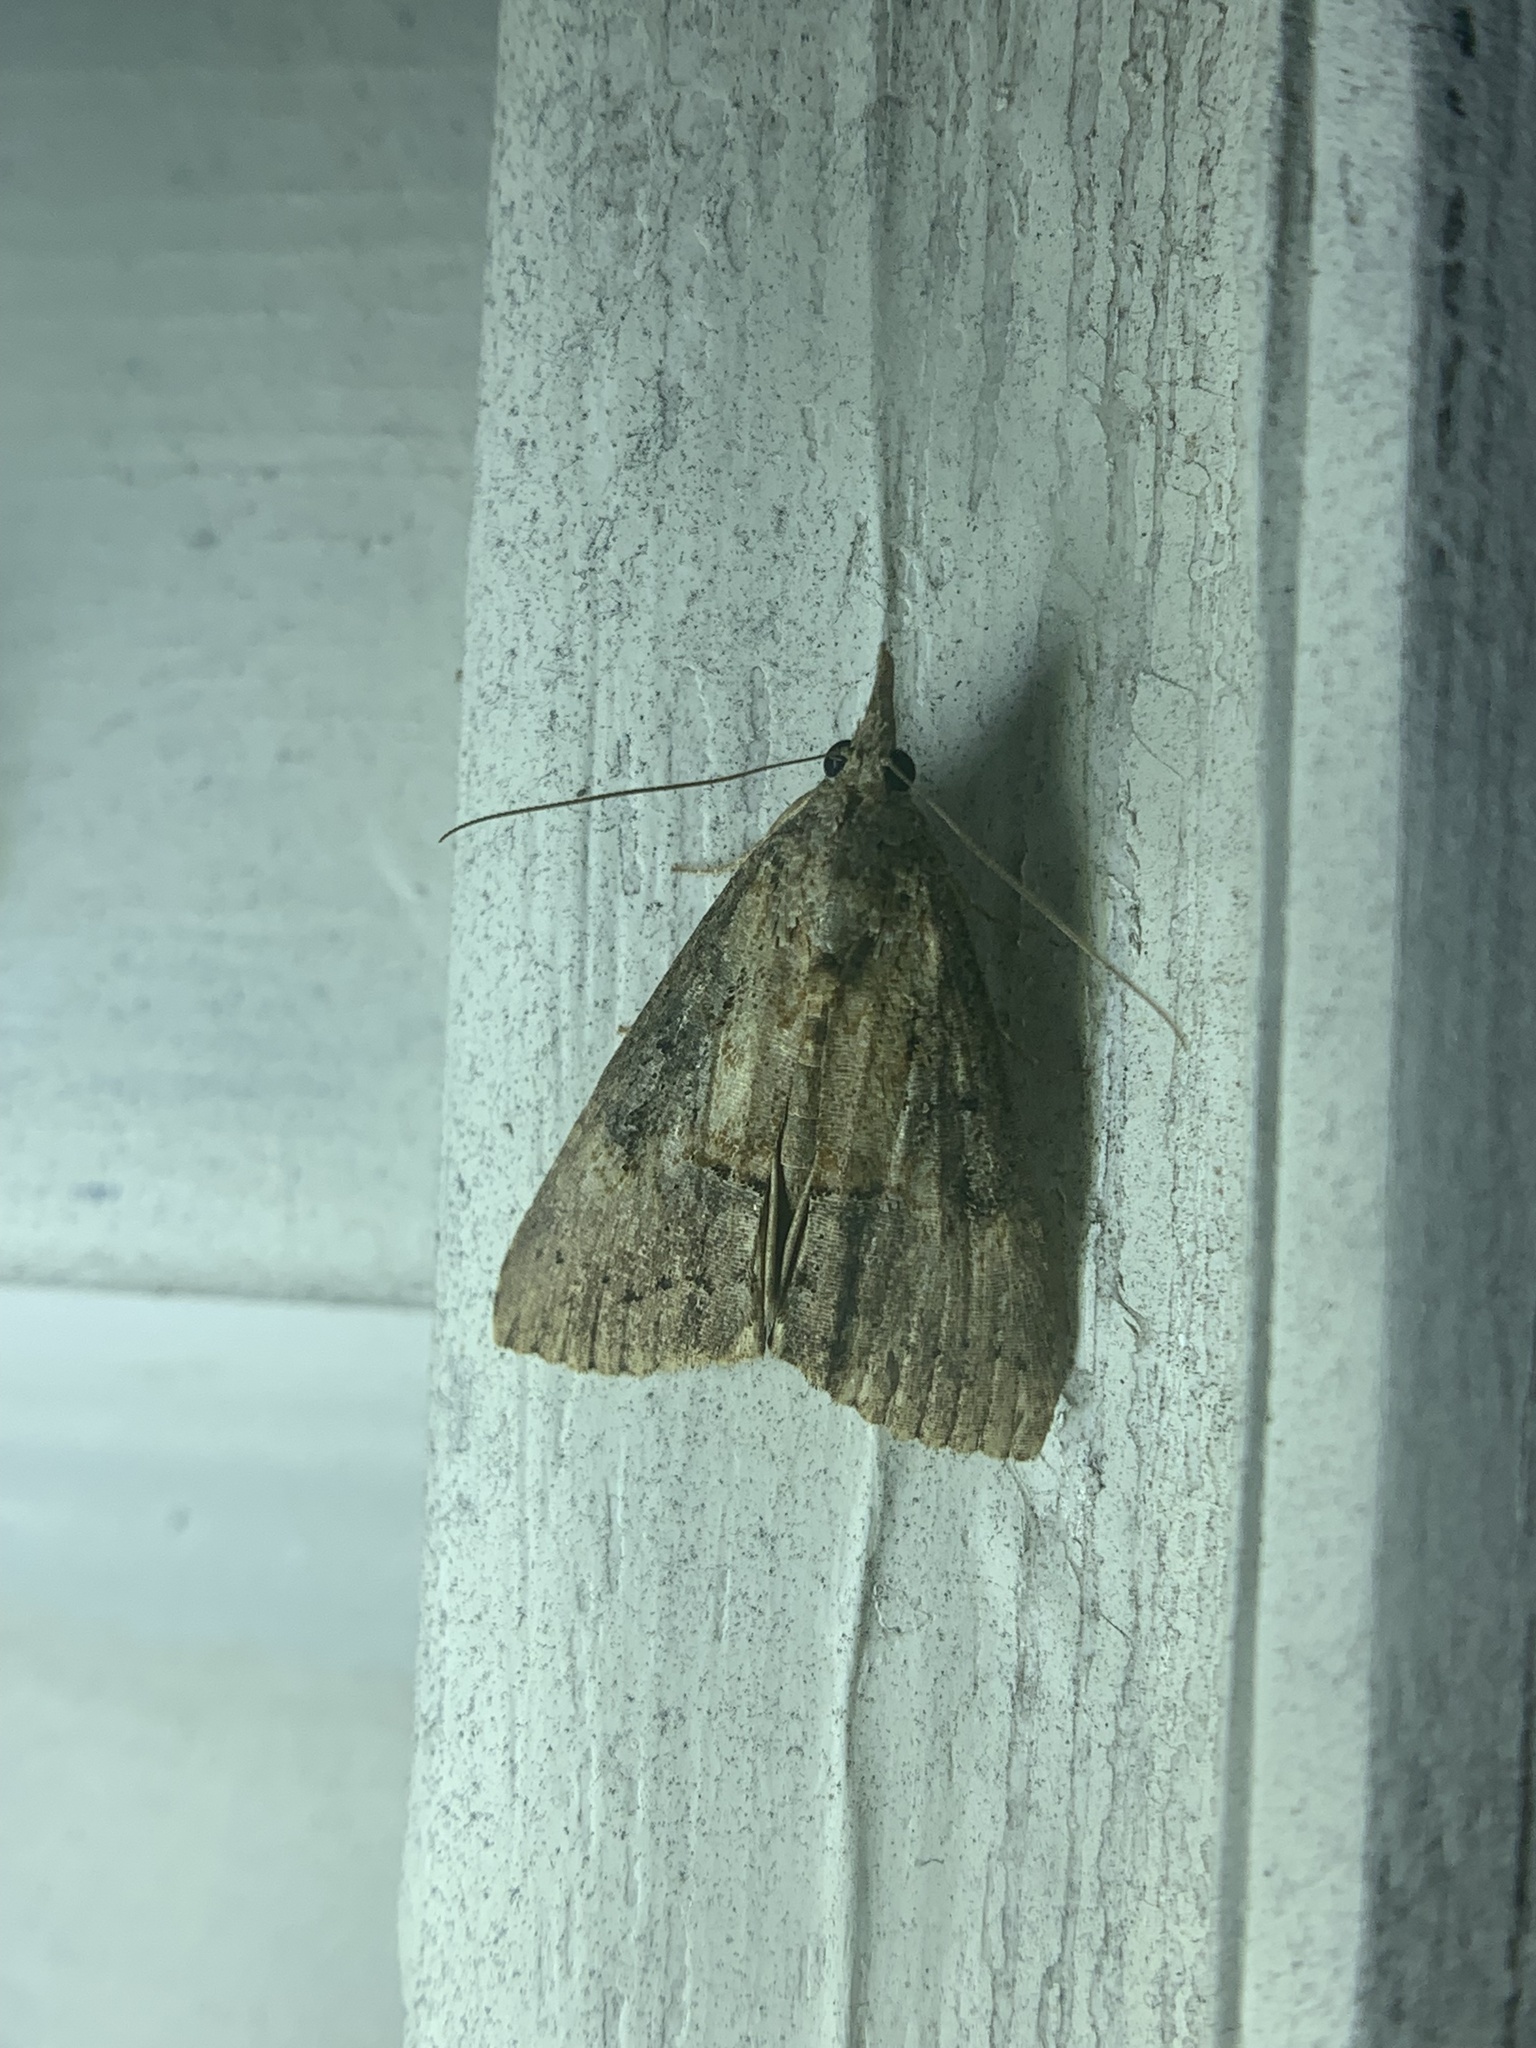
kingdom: Animalia
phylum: Arthropoda
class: Insecta
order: Lepidoptera
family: Erebidae
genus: Hypena
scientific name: Hypena scabra
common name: Green cloverworm
